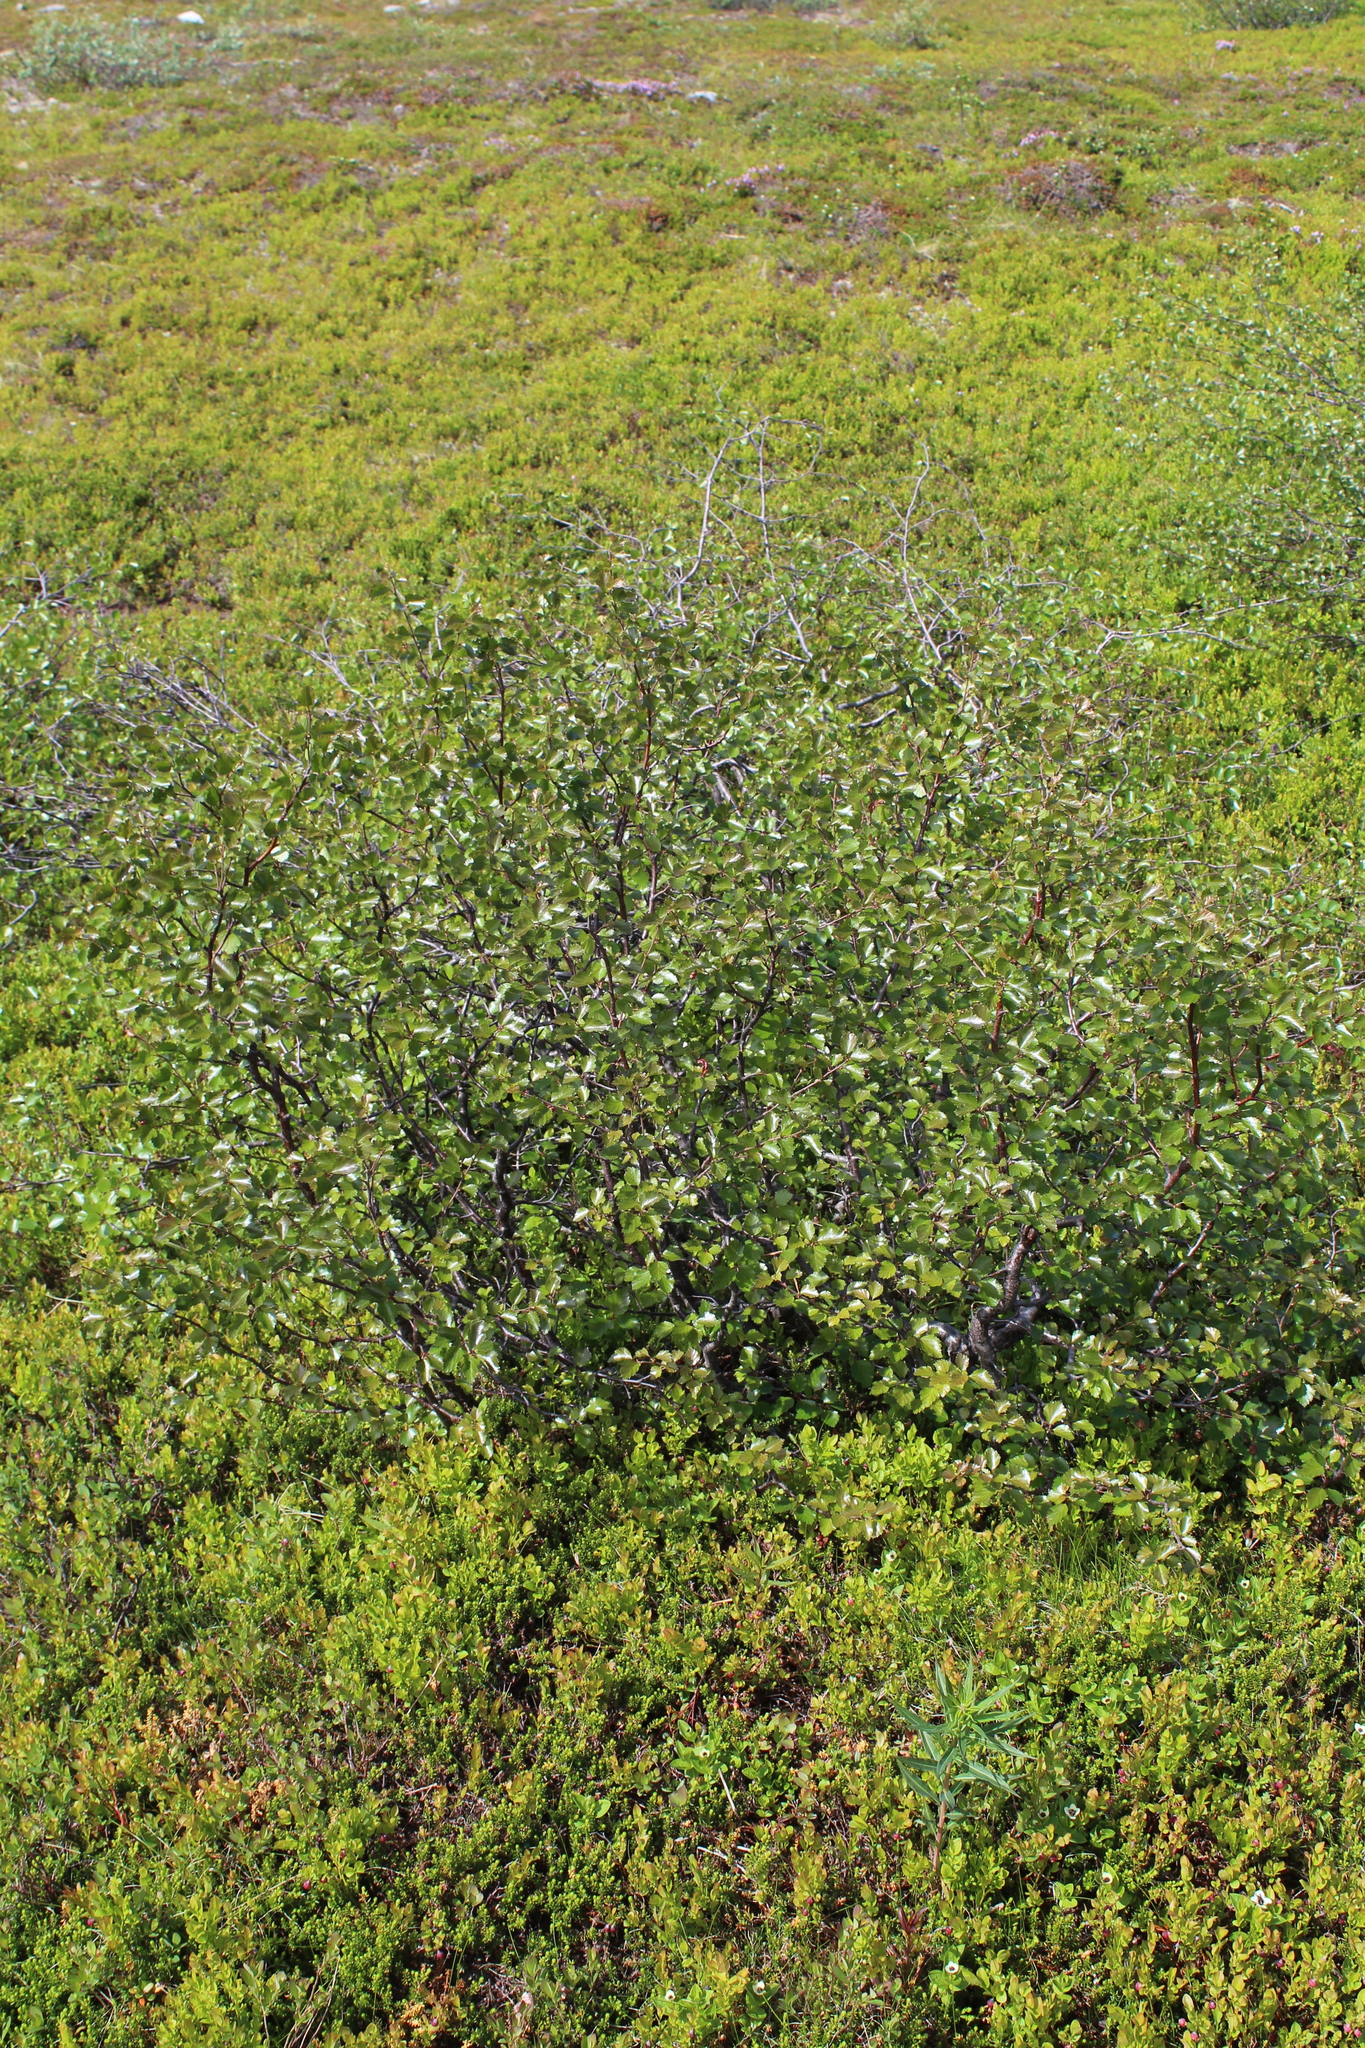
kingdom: Plantae
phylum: Tracheophyta
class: Magnoliopsida
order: Fagales
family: Betulaceae
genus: Betula
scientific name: Betula intermedia
